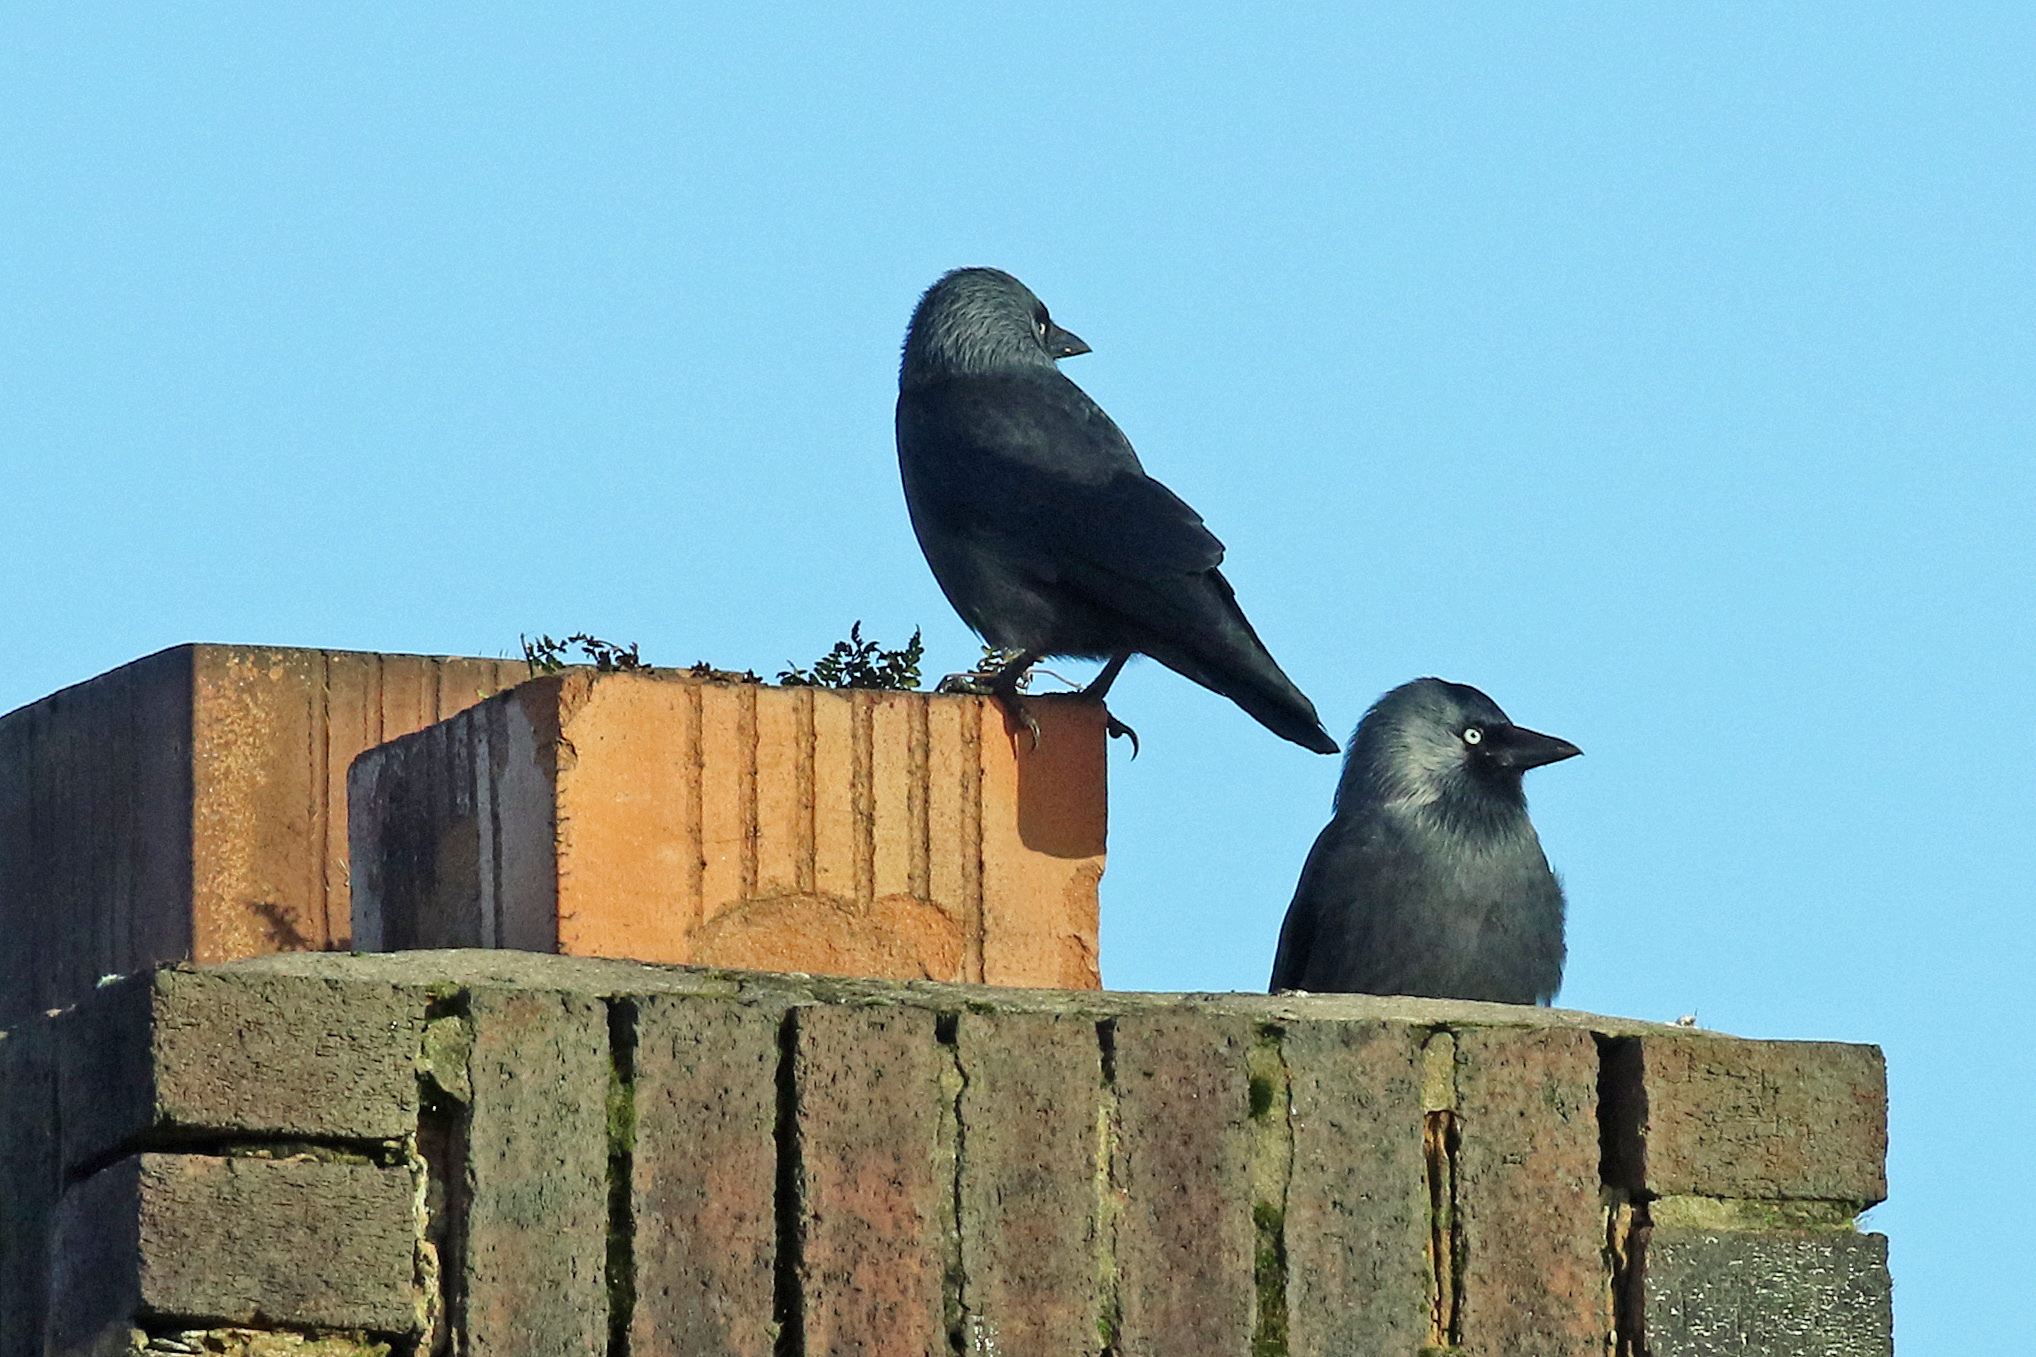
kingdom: Animalia
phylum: Chordata
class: Aves
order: Passeriformes
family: Corvidae
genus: Coloeus
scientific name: Coloeus monedula
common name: Western jackdaw
